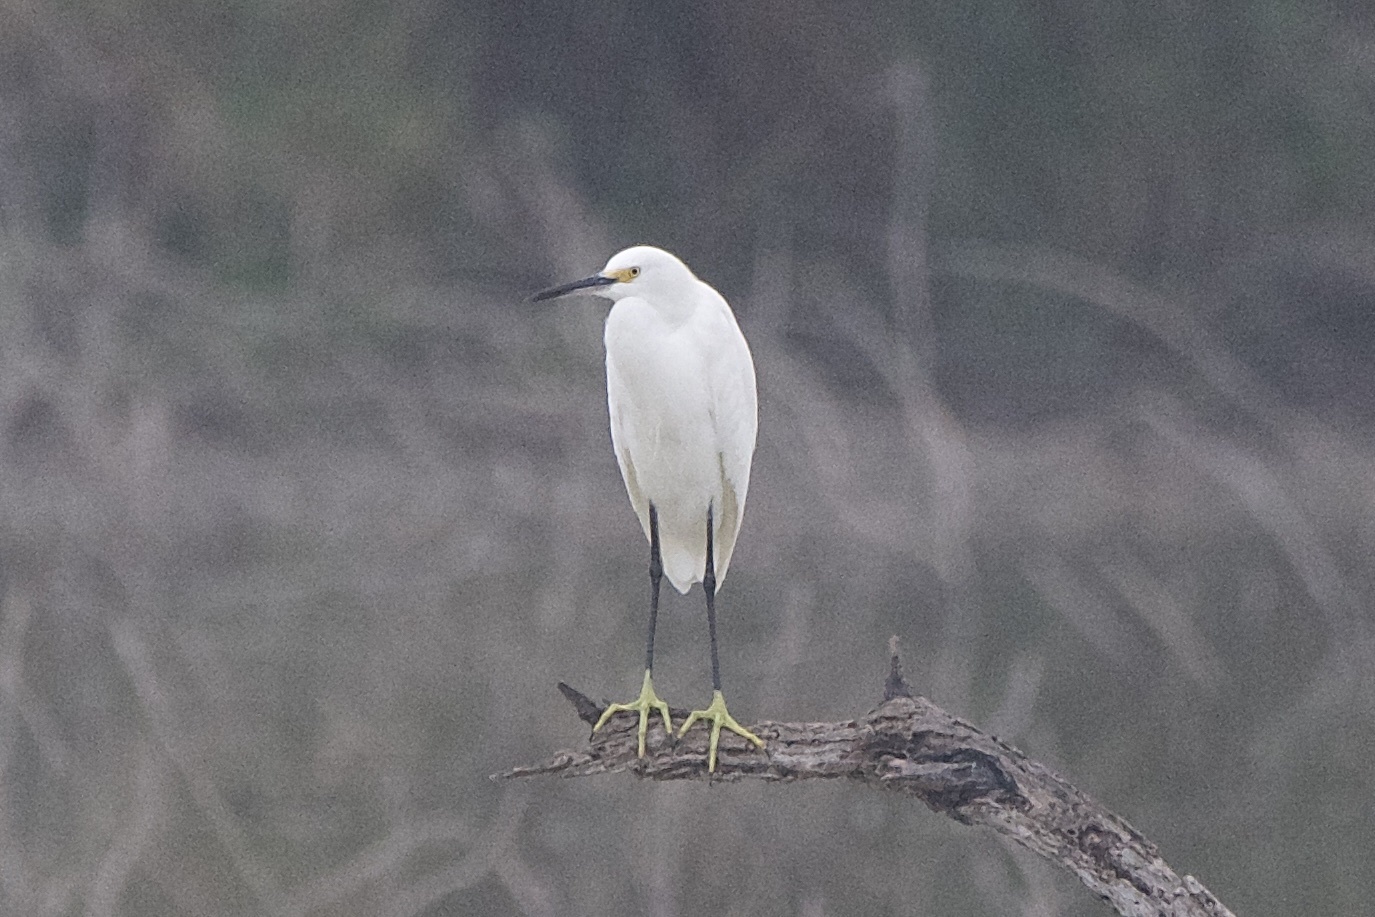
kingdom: Animalia
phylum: Chordata
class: Aves
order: Pelecaniformes
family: Ardeidae
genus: Egretta
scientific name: Egretta thula
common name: Snowy egret
